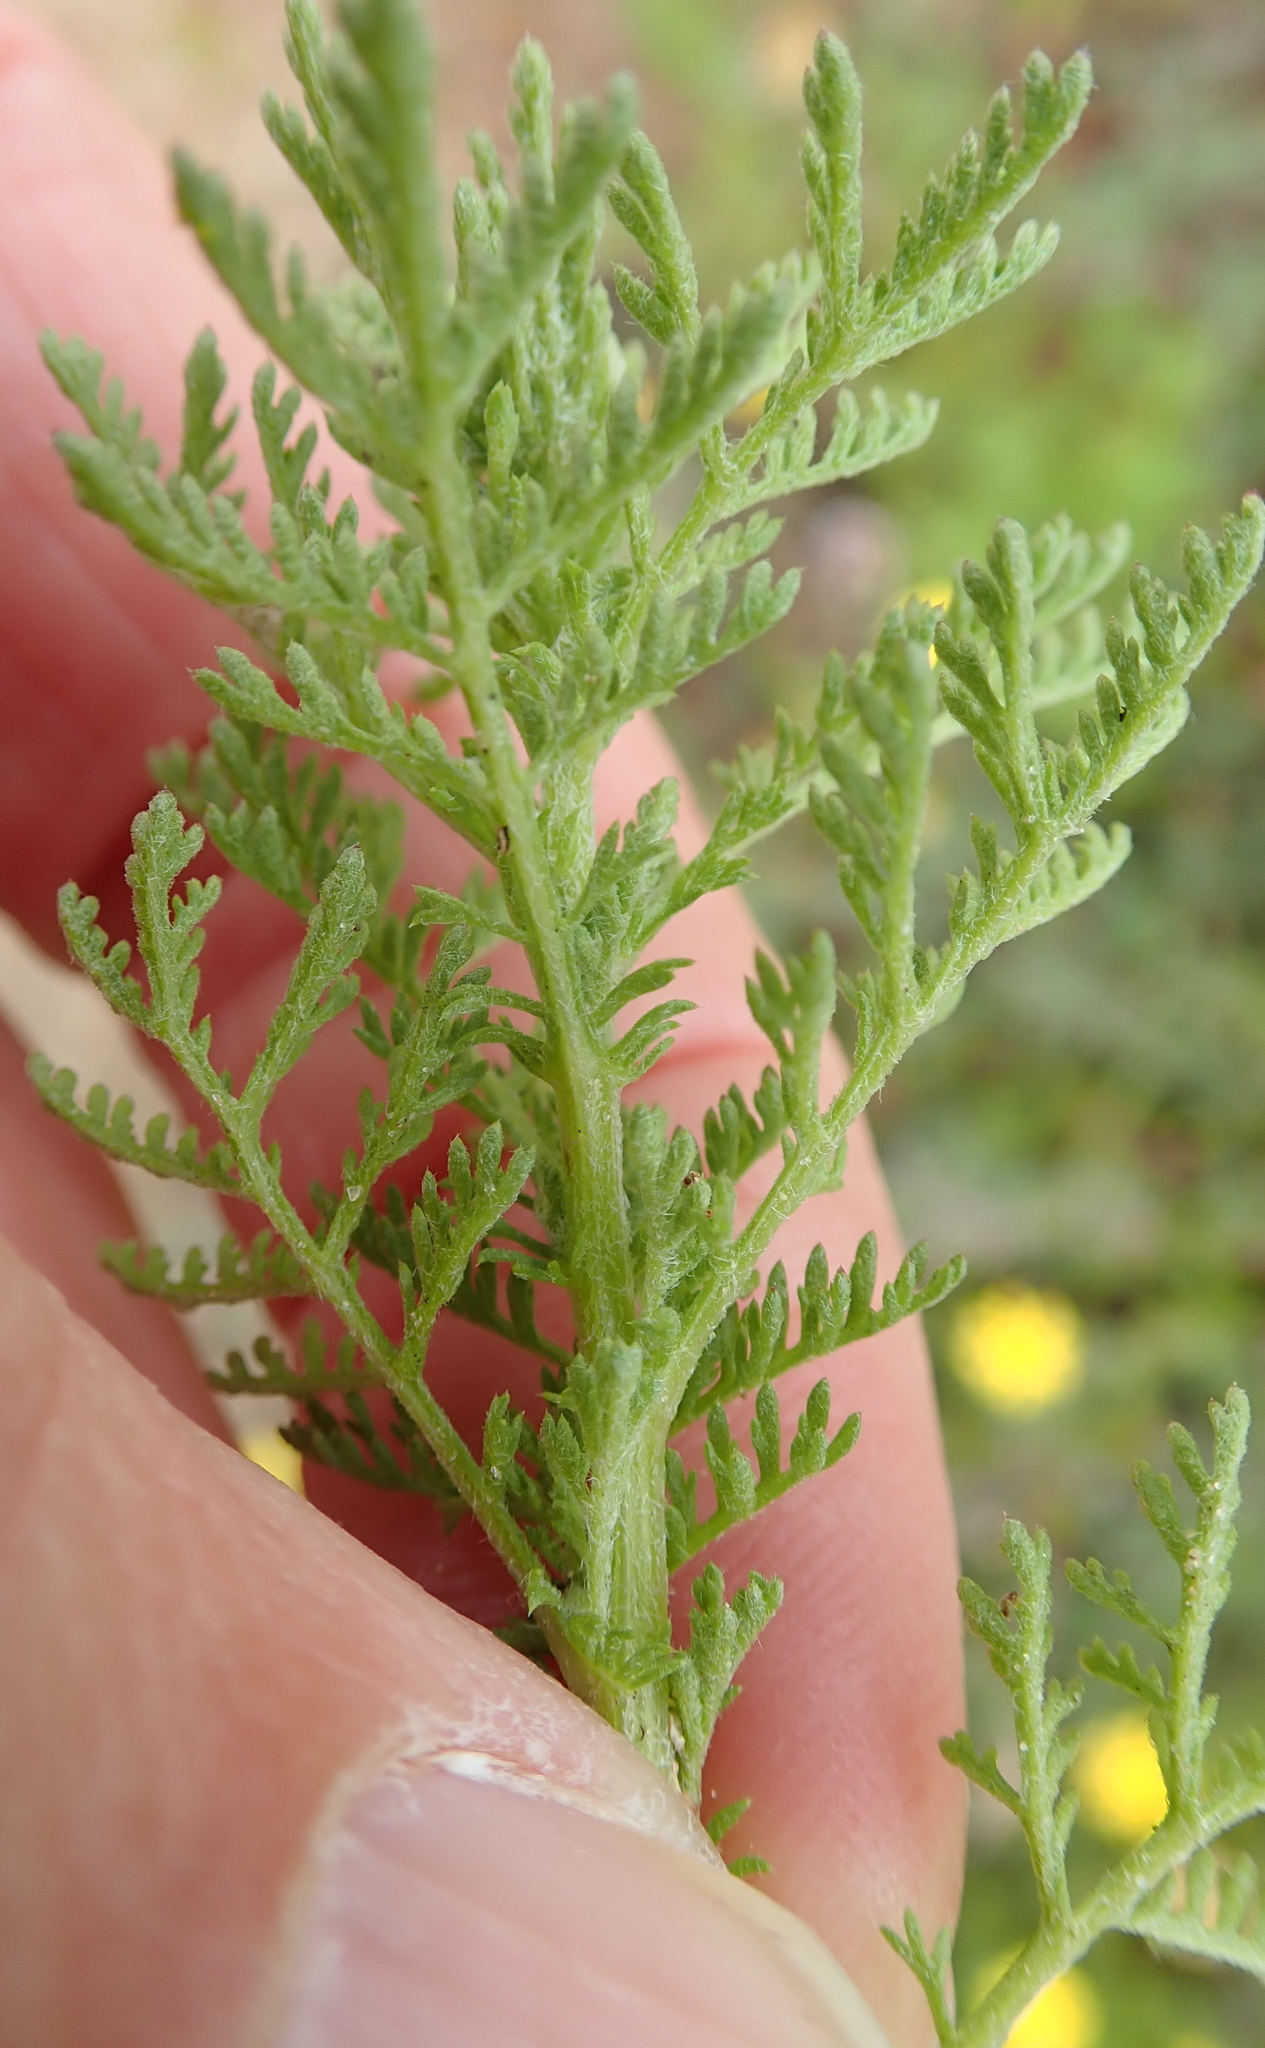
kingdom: Plantae
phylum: Tracheophyta
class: Magnoliopsida
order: Asterales
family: Asteraceae
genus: Cotula
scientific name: Cotula pruinosa
